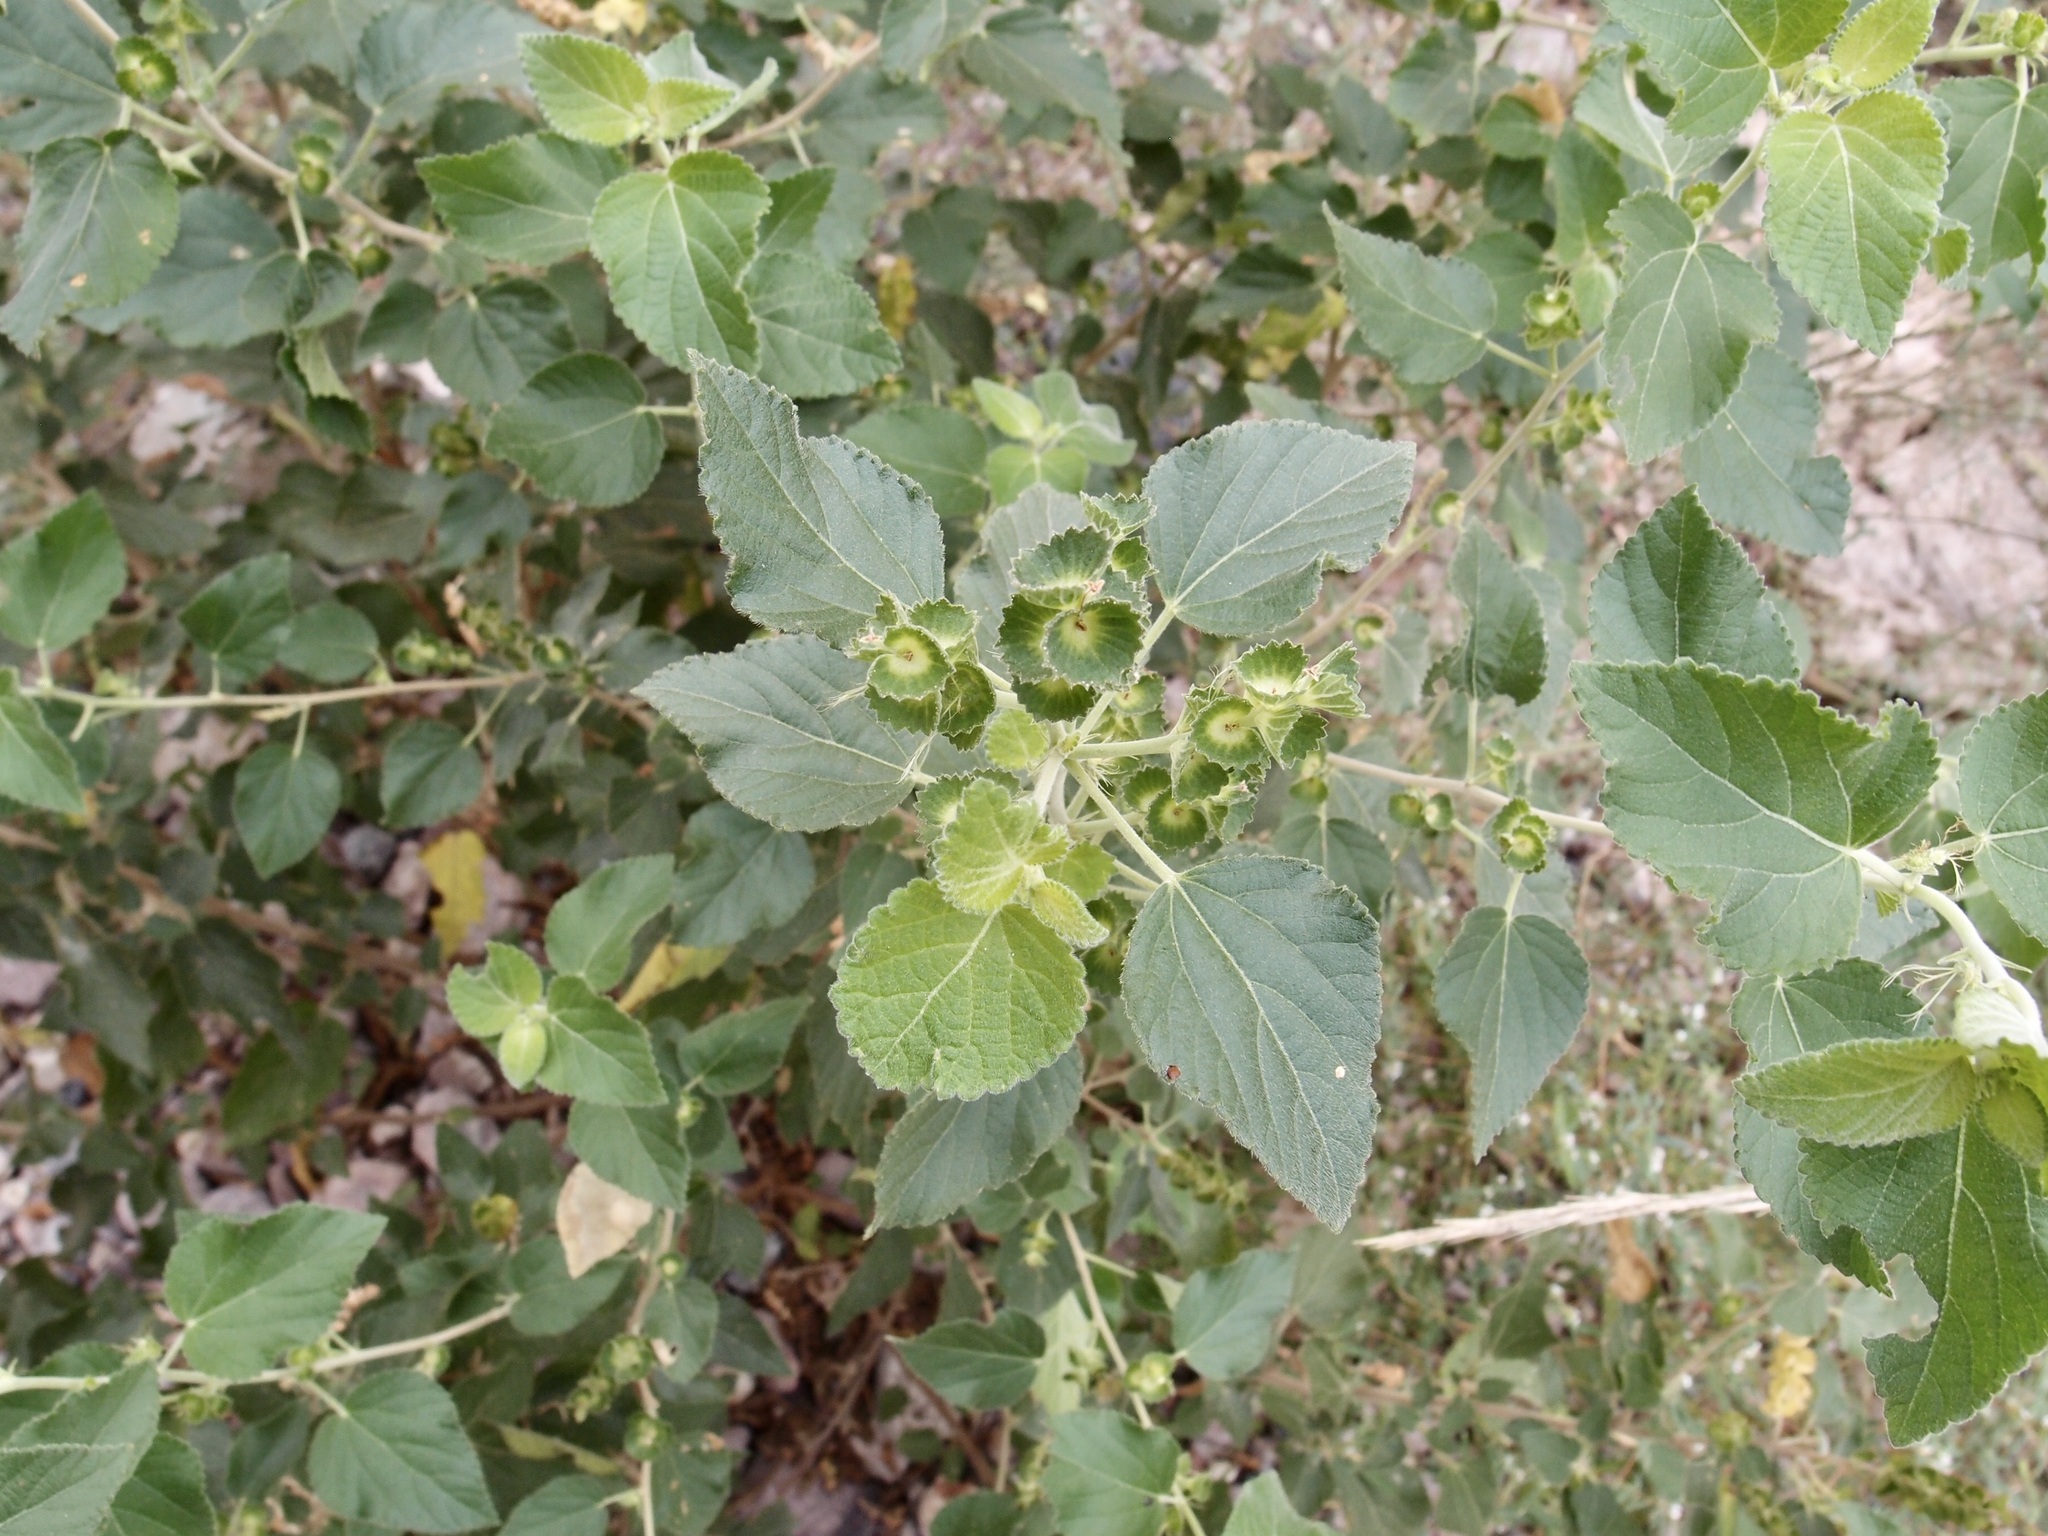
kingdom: Plantae
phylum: Tracheophyta
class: Magnoliopsida
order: Malpighiales
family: Euphorbiaceae
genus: Acalypha
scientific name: Acalypha californica
